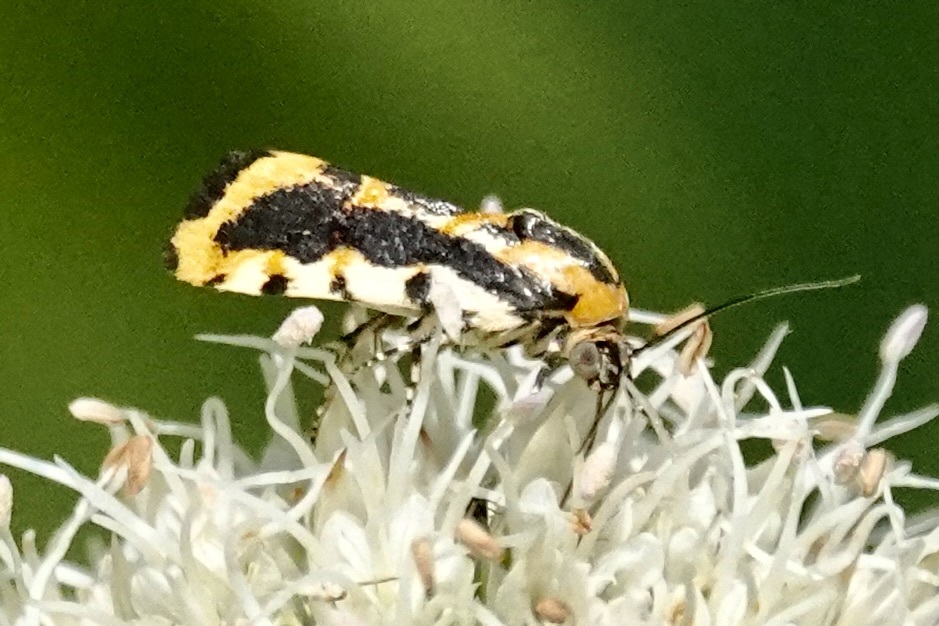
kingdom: Animalia
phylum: Arthropoda
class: Insecta
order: Lepidoptera
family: Noctuidae
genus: Acontia
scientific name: Acontia leo
